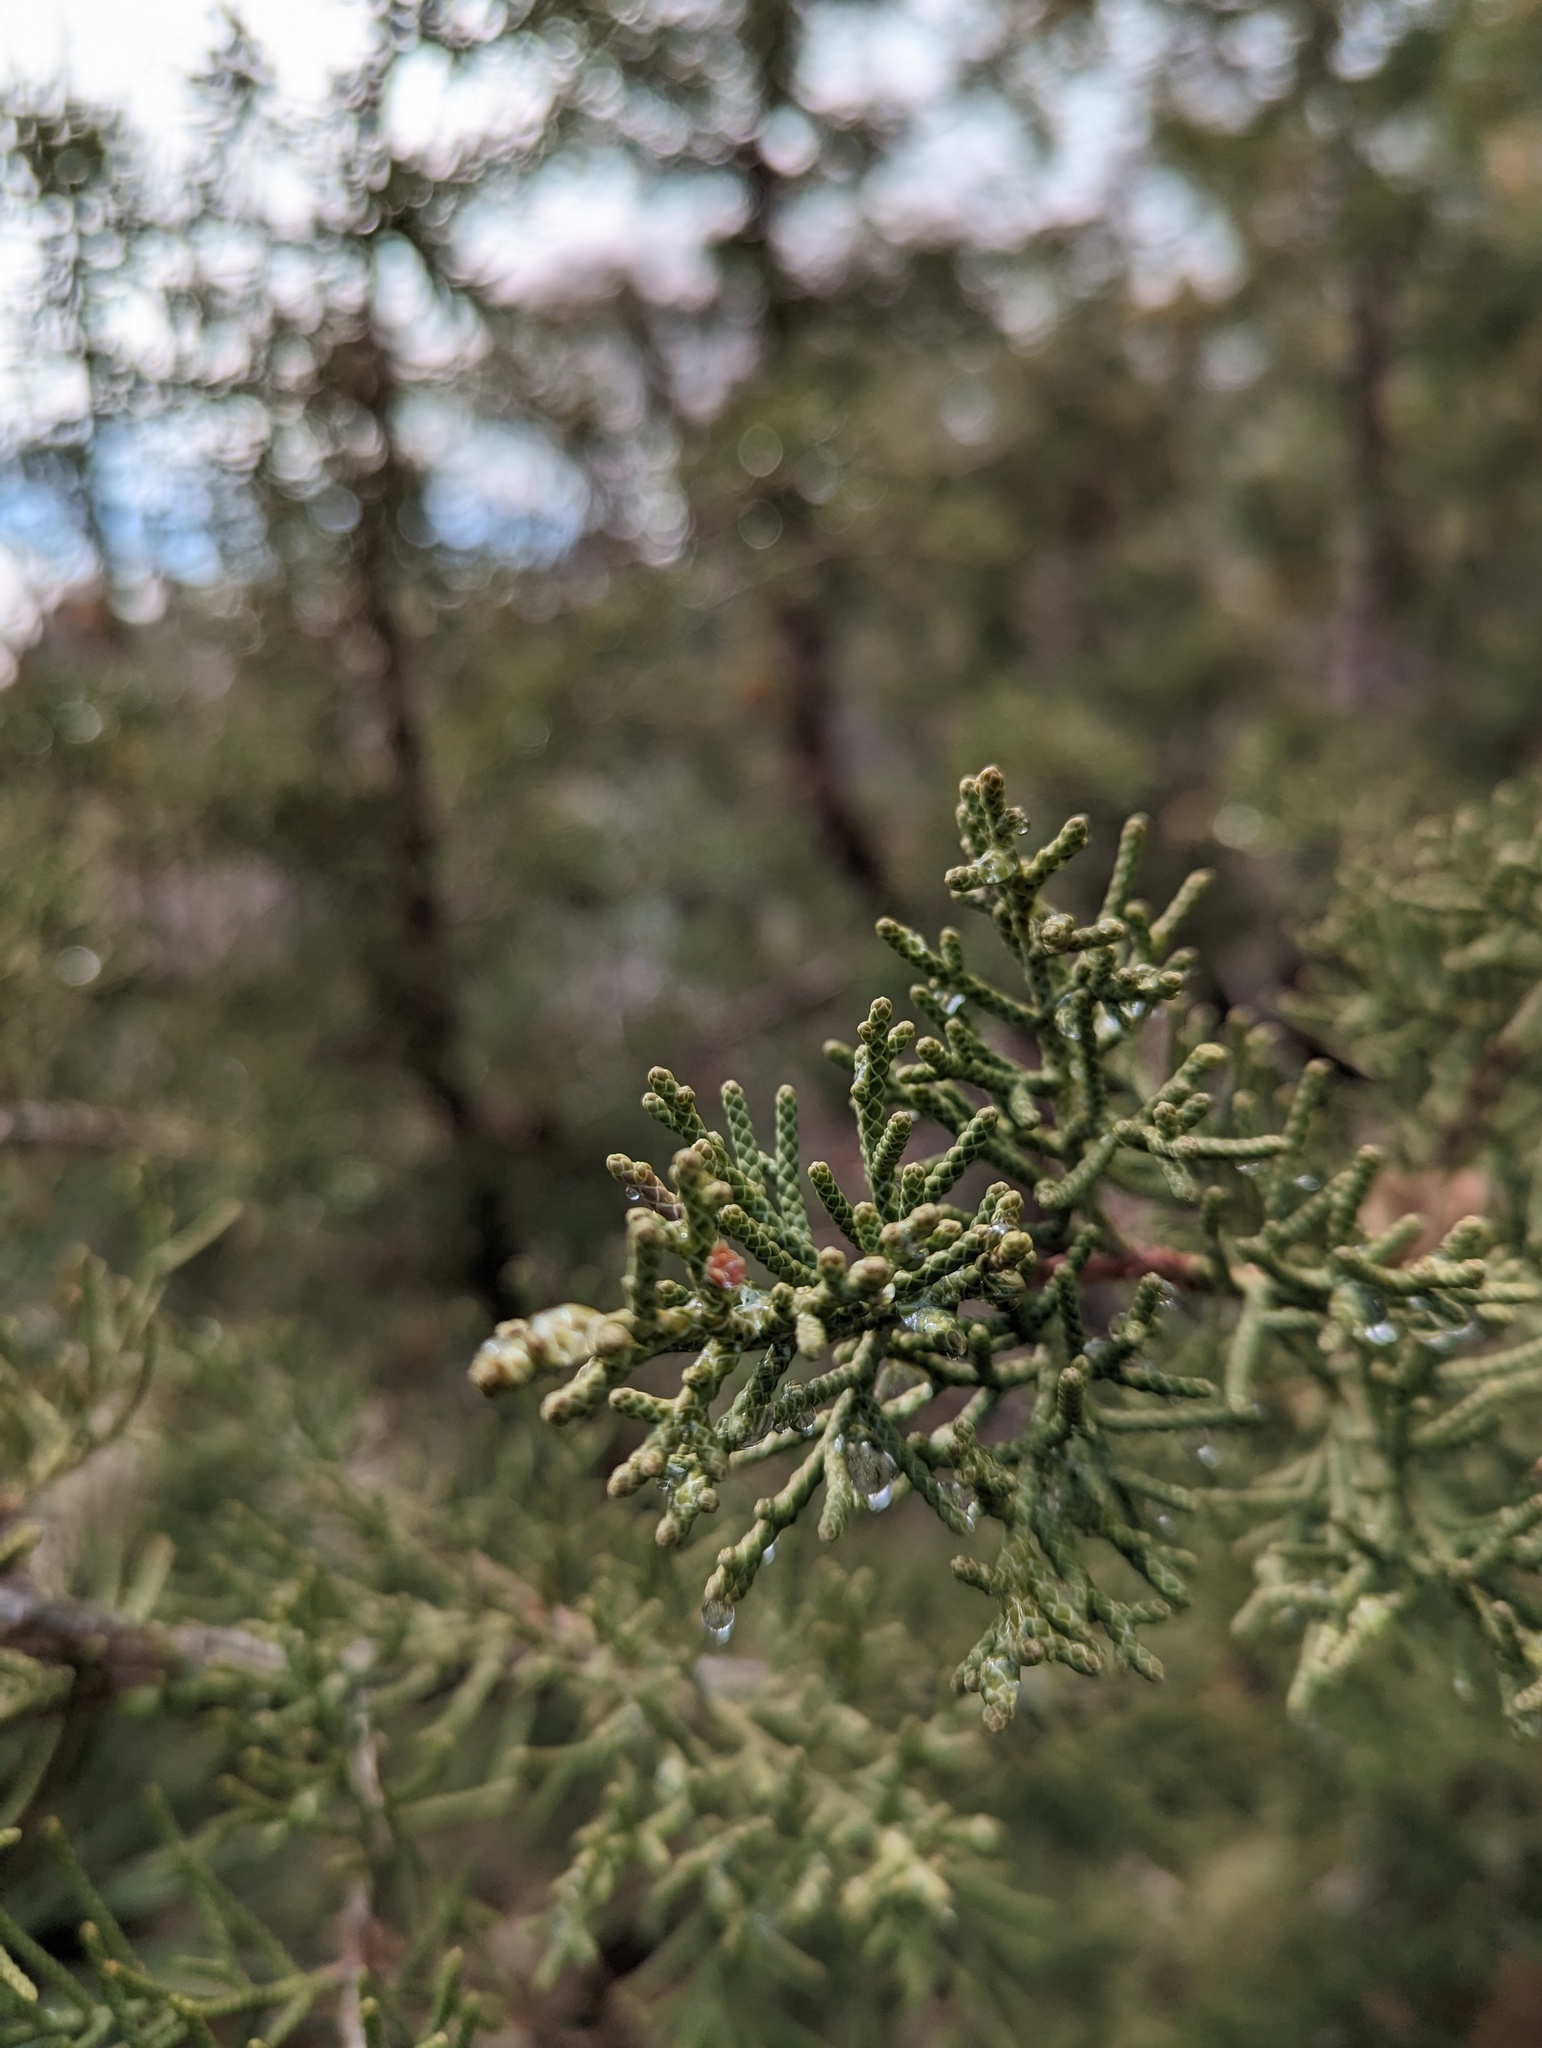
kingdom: Plantae
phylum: Tracheophyta
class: Pinopsida
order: Pinales
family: Cupressaceae
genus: Juniperus
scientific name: Juniperus californica
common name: California juniper
